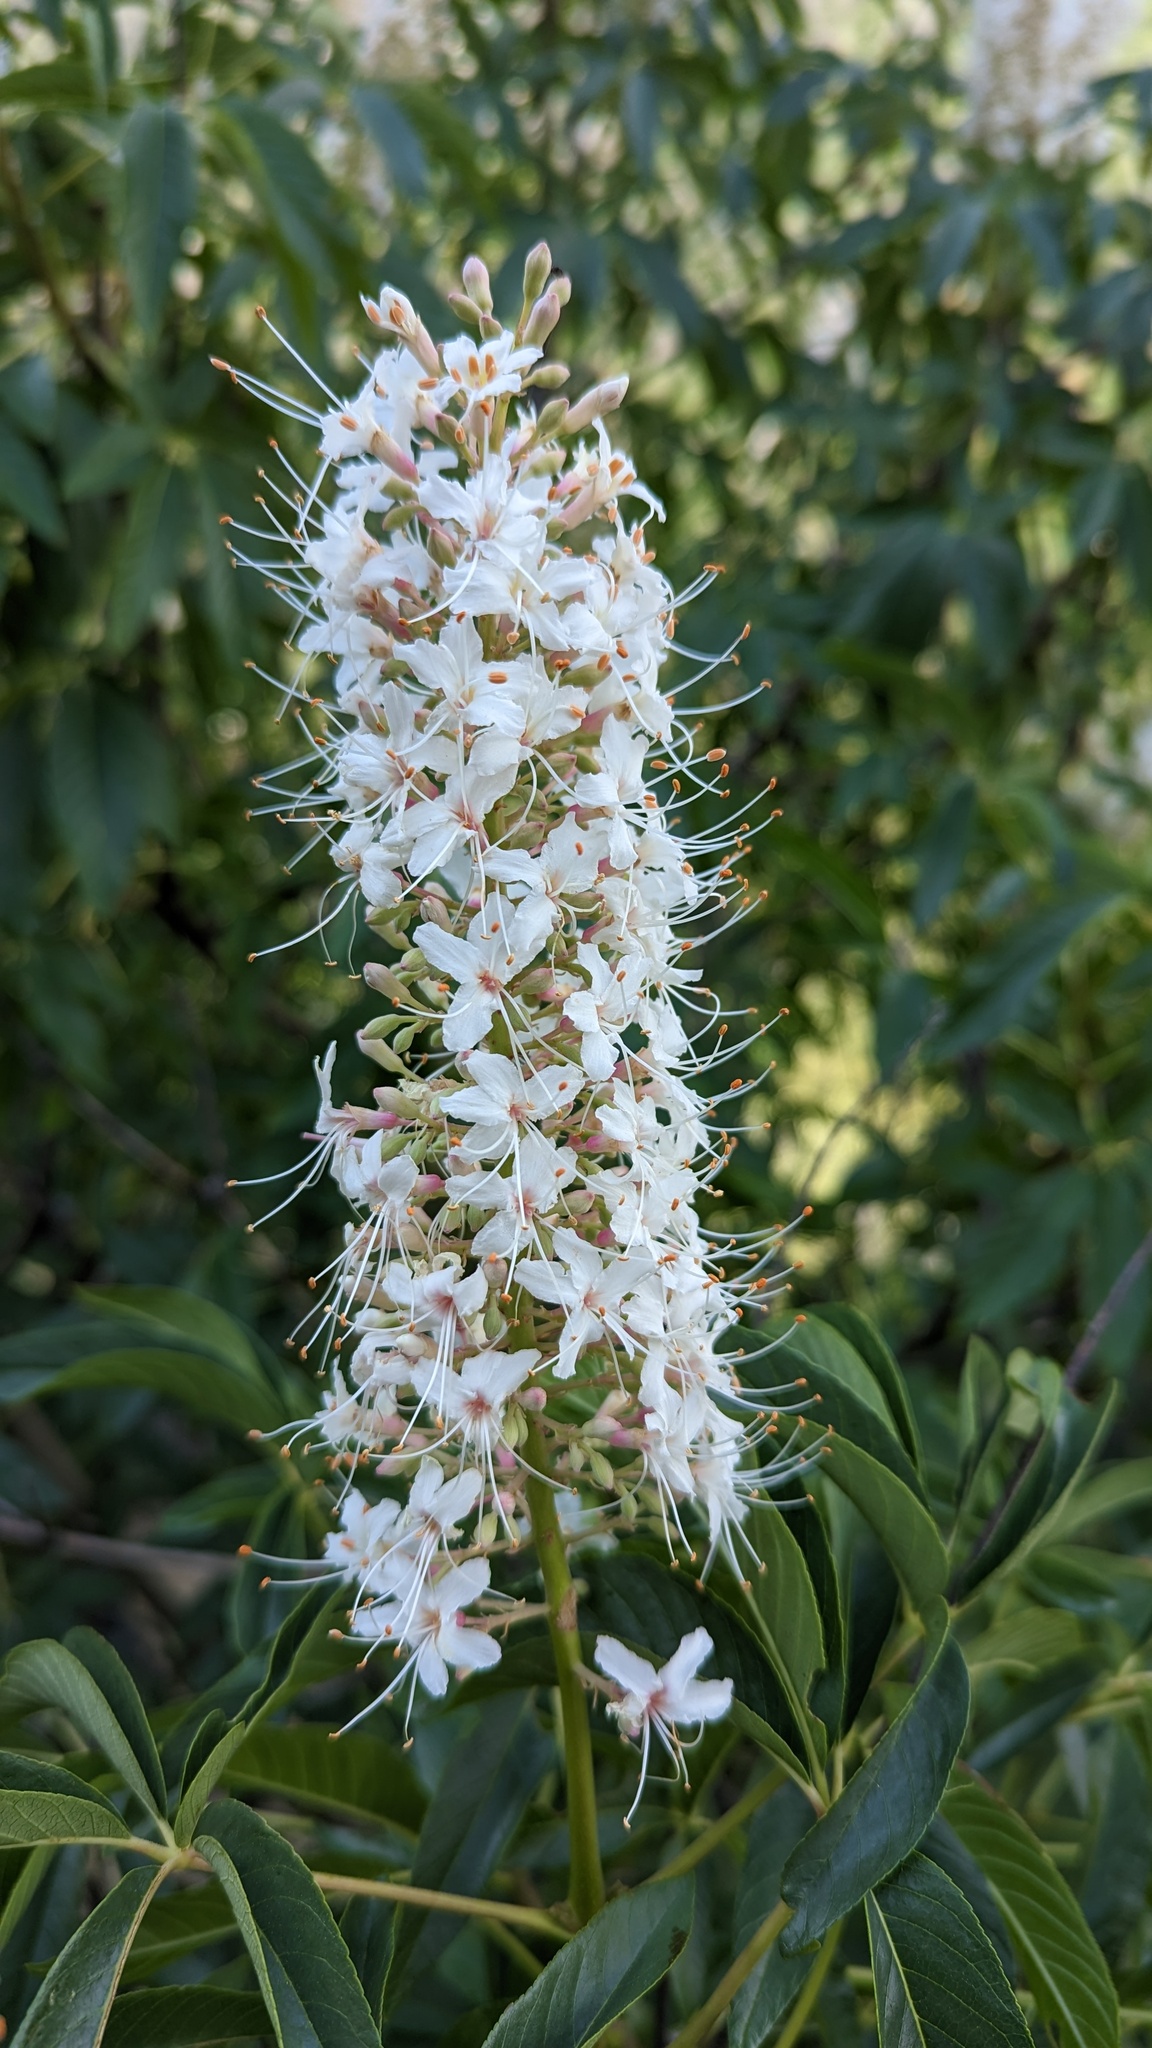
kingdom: Plantae
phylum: Tracheophyta
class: Magnoliopsida
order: Sapindales
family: Sapindaceae
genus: Aesculus
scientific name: Aesculus californica
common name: California buckeye
